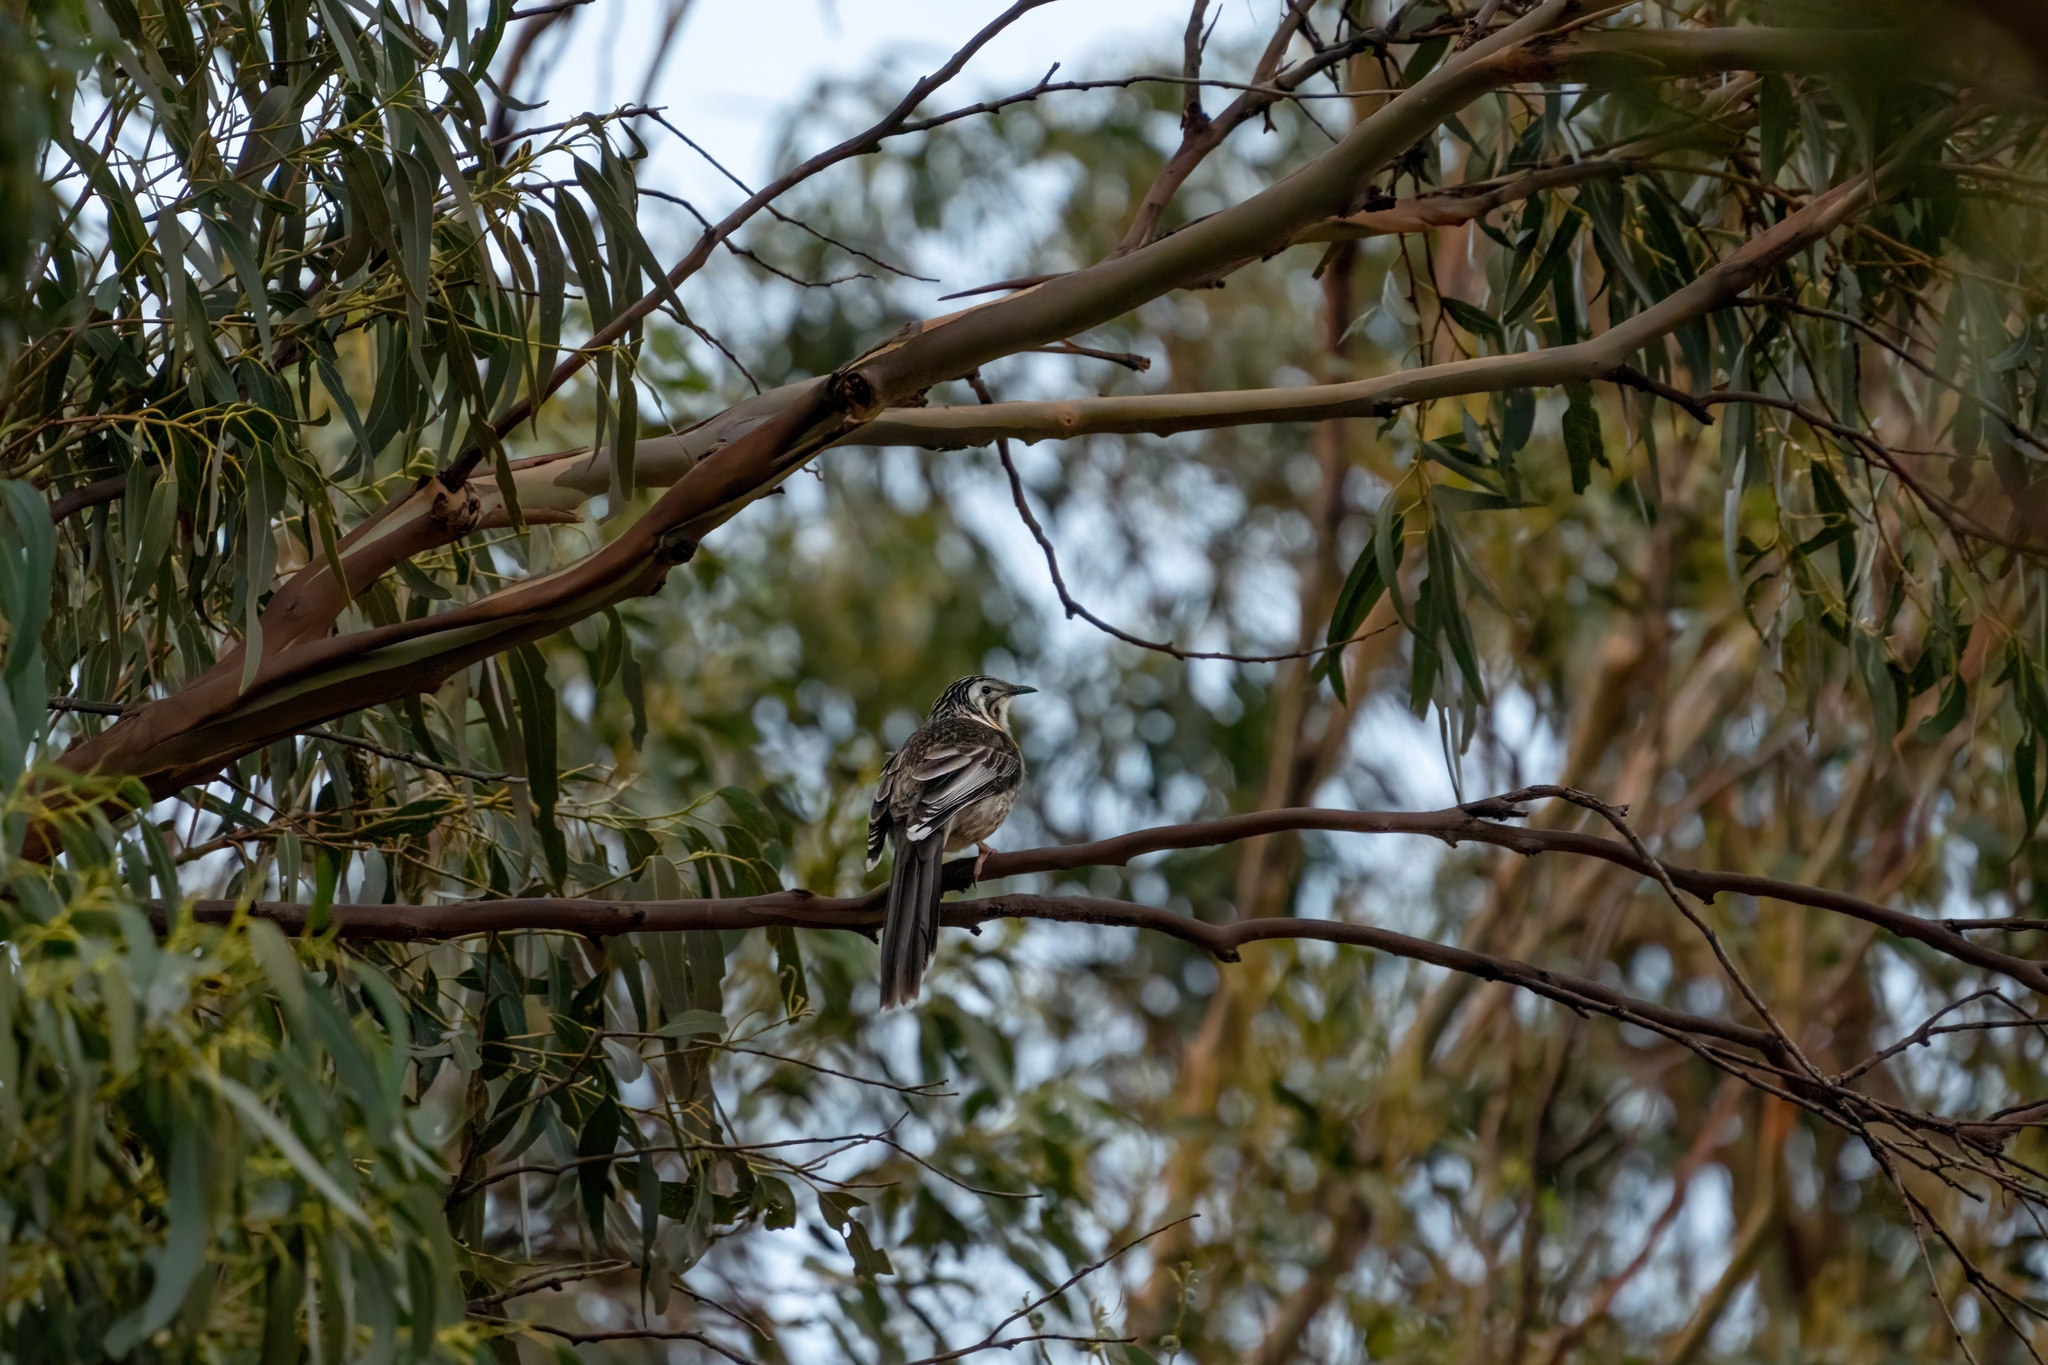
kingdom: Animalia
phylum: Chordata
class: Aves
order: Passeriformes
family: Meliphagidae
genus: Anthochaera
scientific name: Anthochaera paradoxa
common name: Yellow wattlebird
